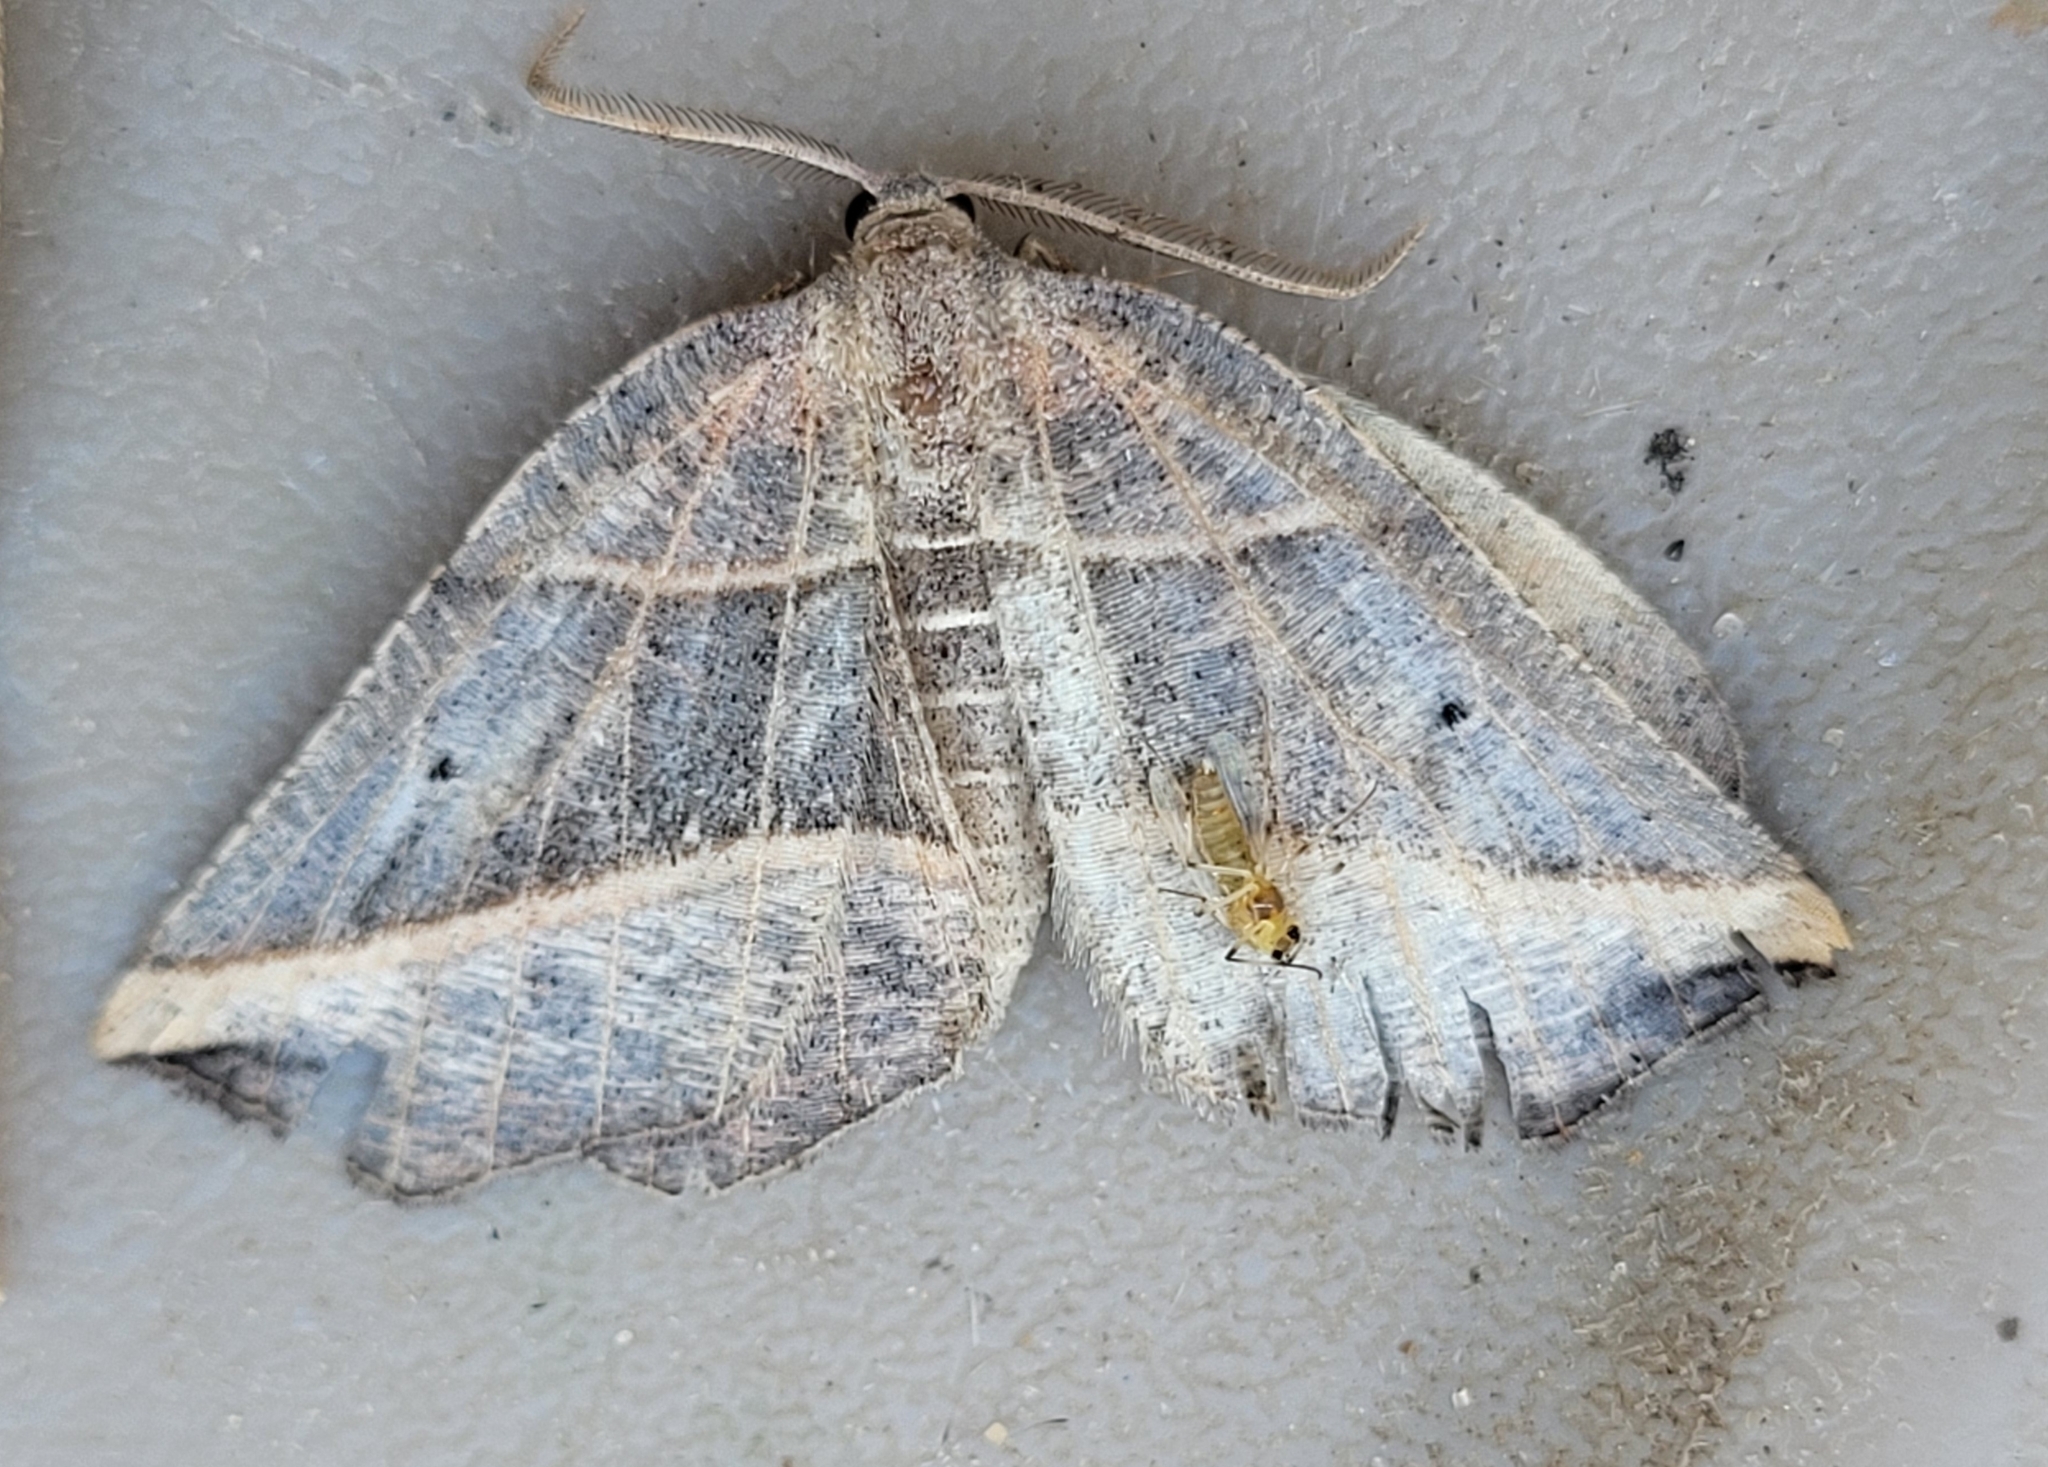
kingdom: Animalia
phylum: Arthropoda
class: Insecta
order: Lepidoptera
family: Geometridae
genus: Metanema
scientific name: Metanema determinata
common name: Dark metanema
